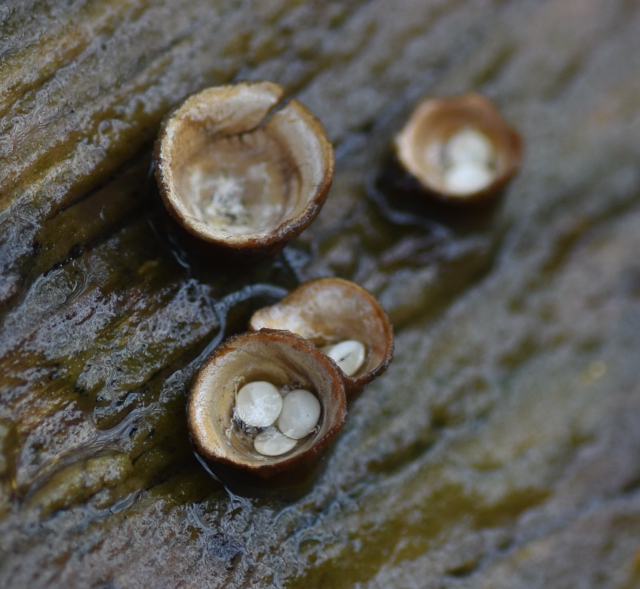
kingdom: Fungi
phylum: Basidiomycota
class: Agaricomycetes
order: Agaricales
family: Nidulariaceae
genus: Crucibulum
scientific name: Crucibulum laeve
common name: Common bird's nest
